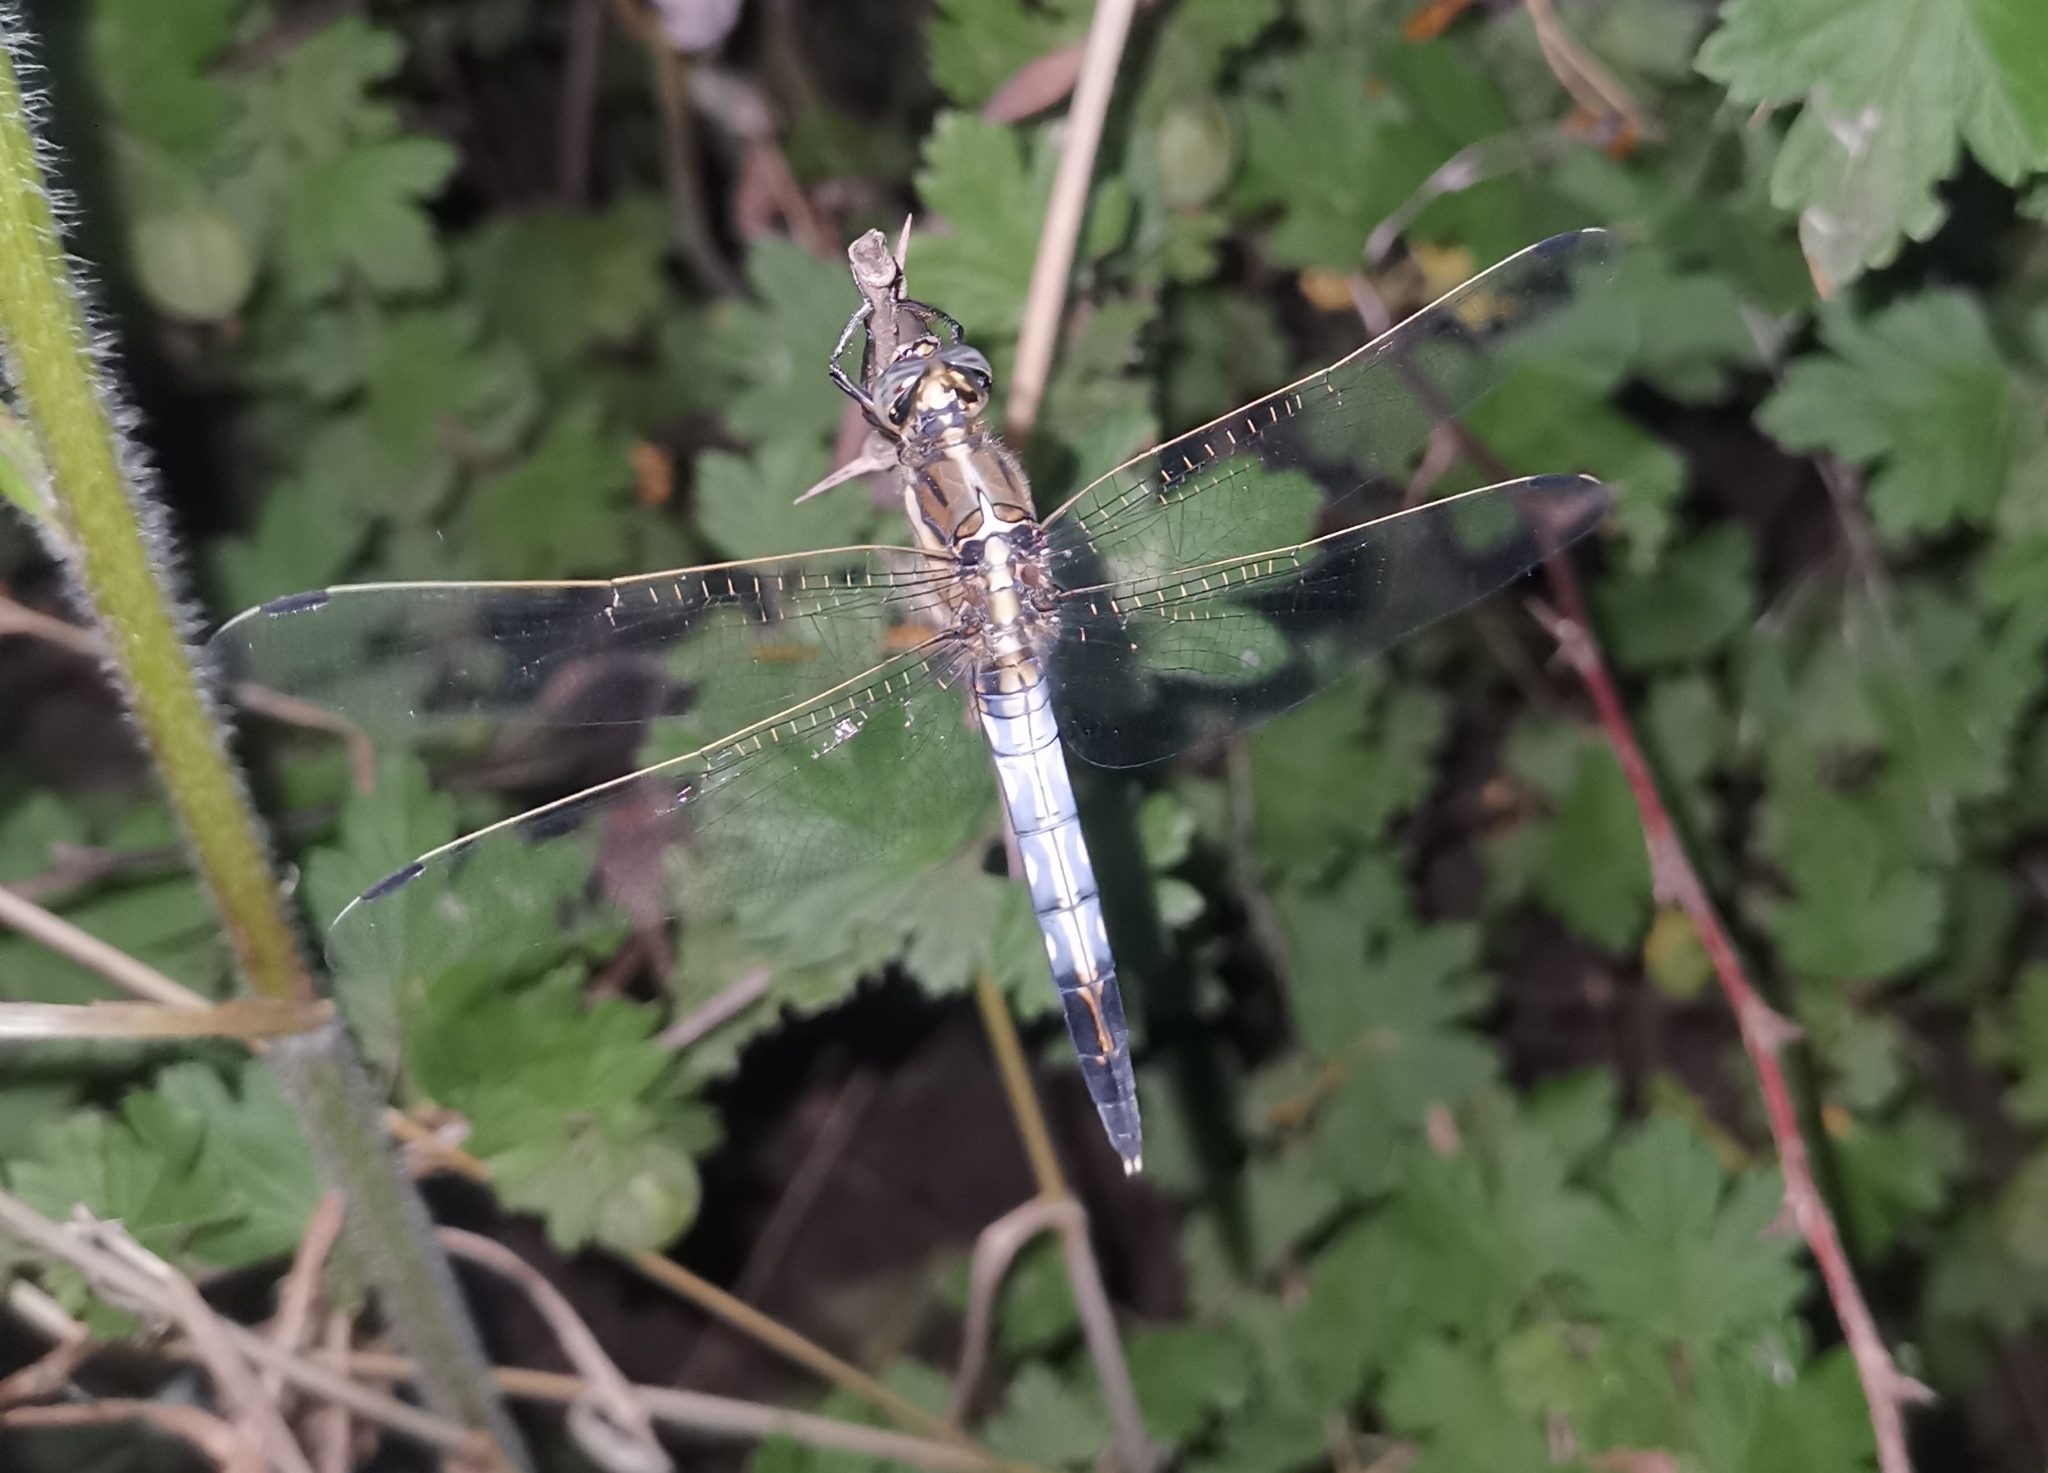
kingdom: Animalia
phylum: Arthropoda
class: Insecta
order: Odonata
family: Libellulidae
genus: Orthetrum
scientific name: Orthetrum albistylum
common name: White-tailed skimmer
